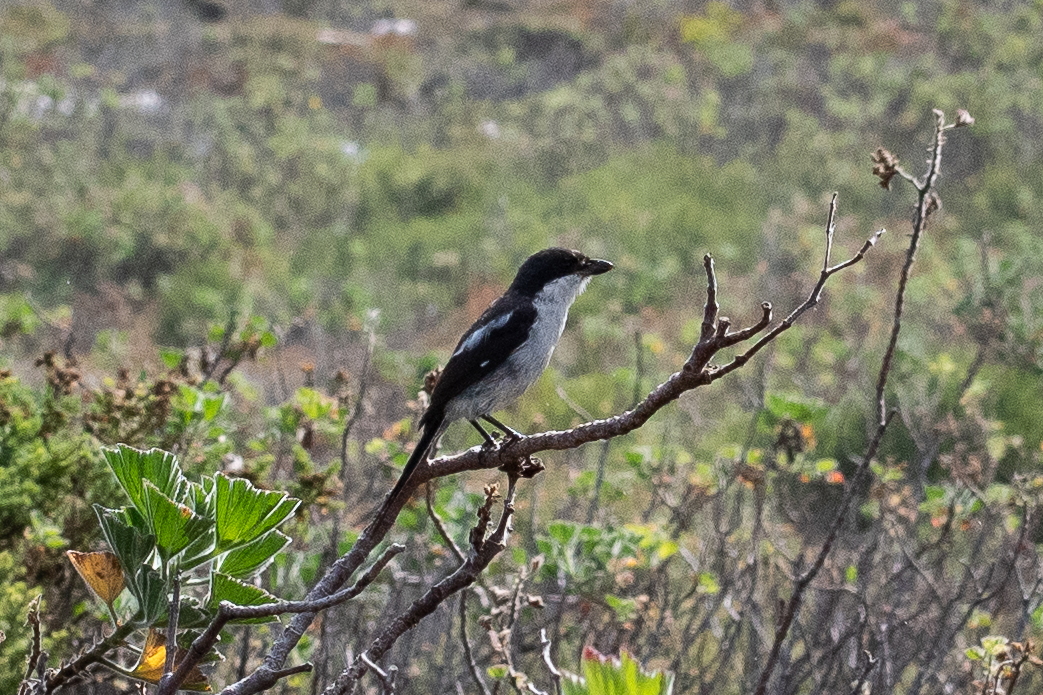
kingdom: Animalia
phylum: Chordata
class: Aves
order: Passeriformes
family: Laniidae
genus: Lanius
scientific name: Lanius collaris
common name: Southern fiscal
